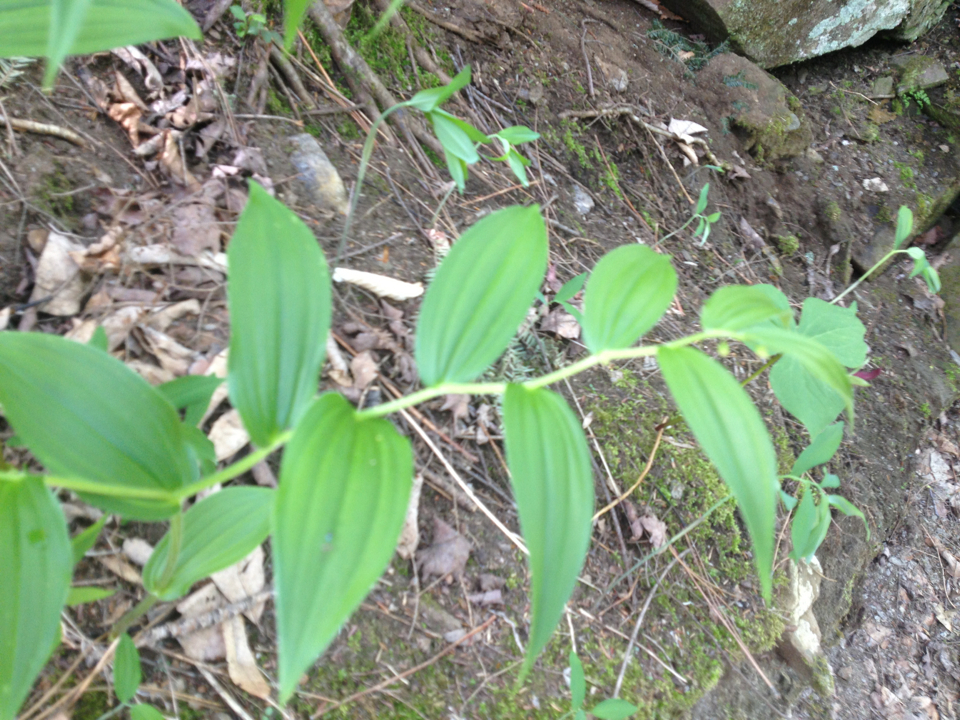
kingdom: Plantae
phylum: Tracheophyta
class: Liliopsida
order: Liliales
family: Liliaceae
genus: Streptopus
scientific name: Streptopus lanceolatus
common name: Rose mandarin
